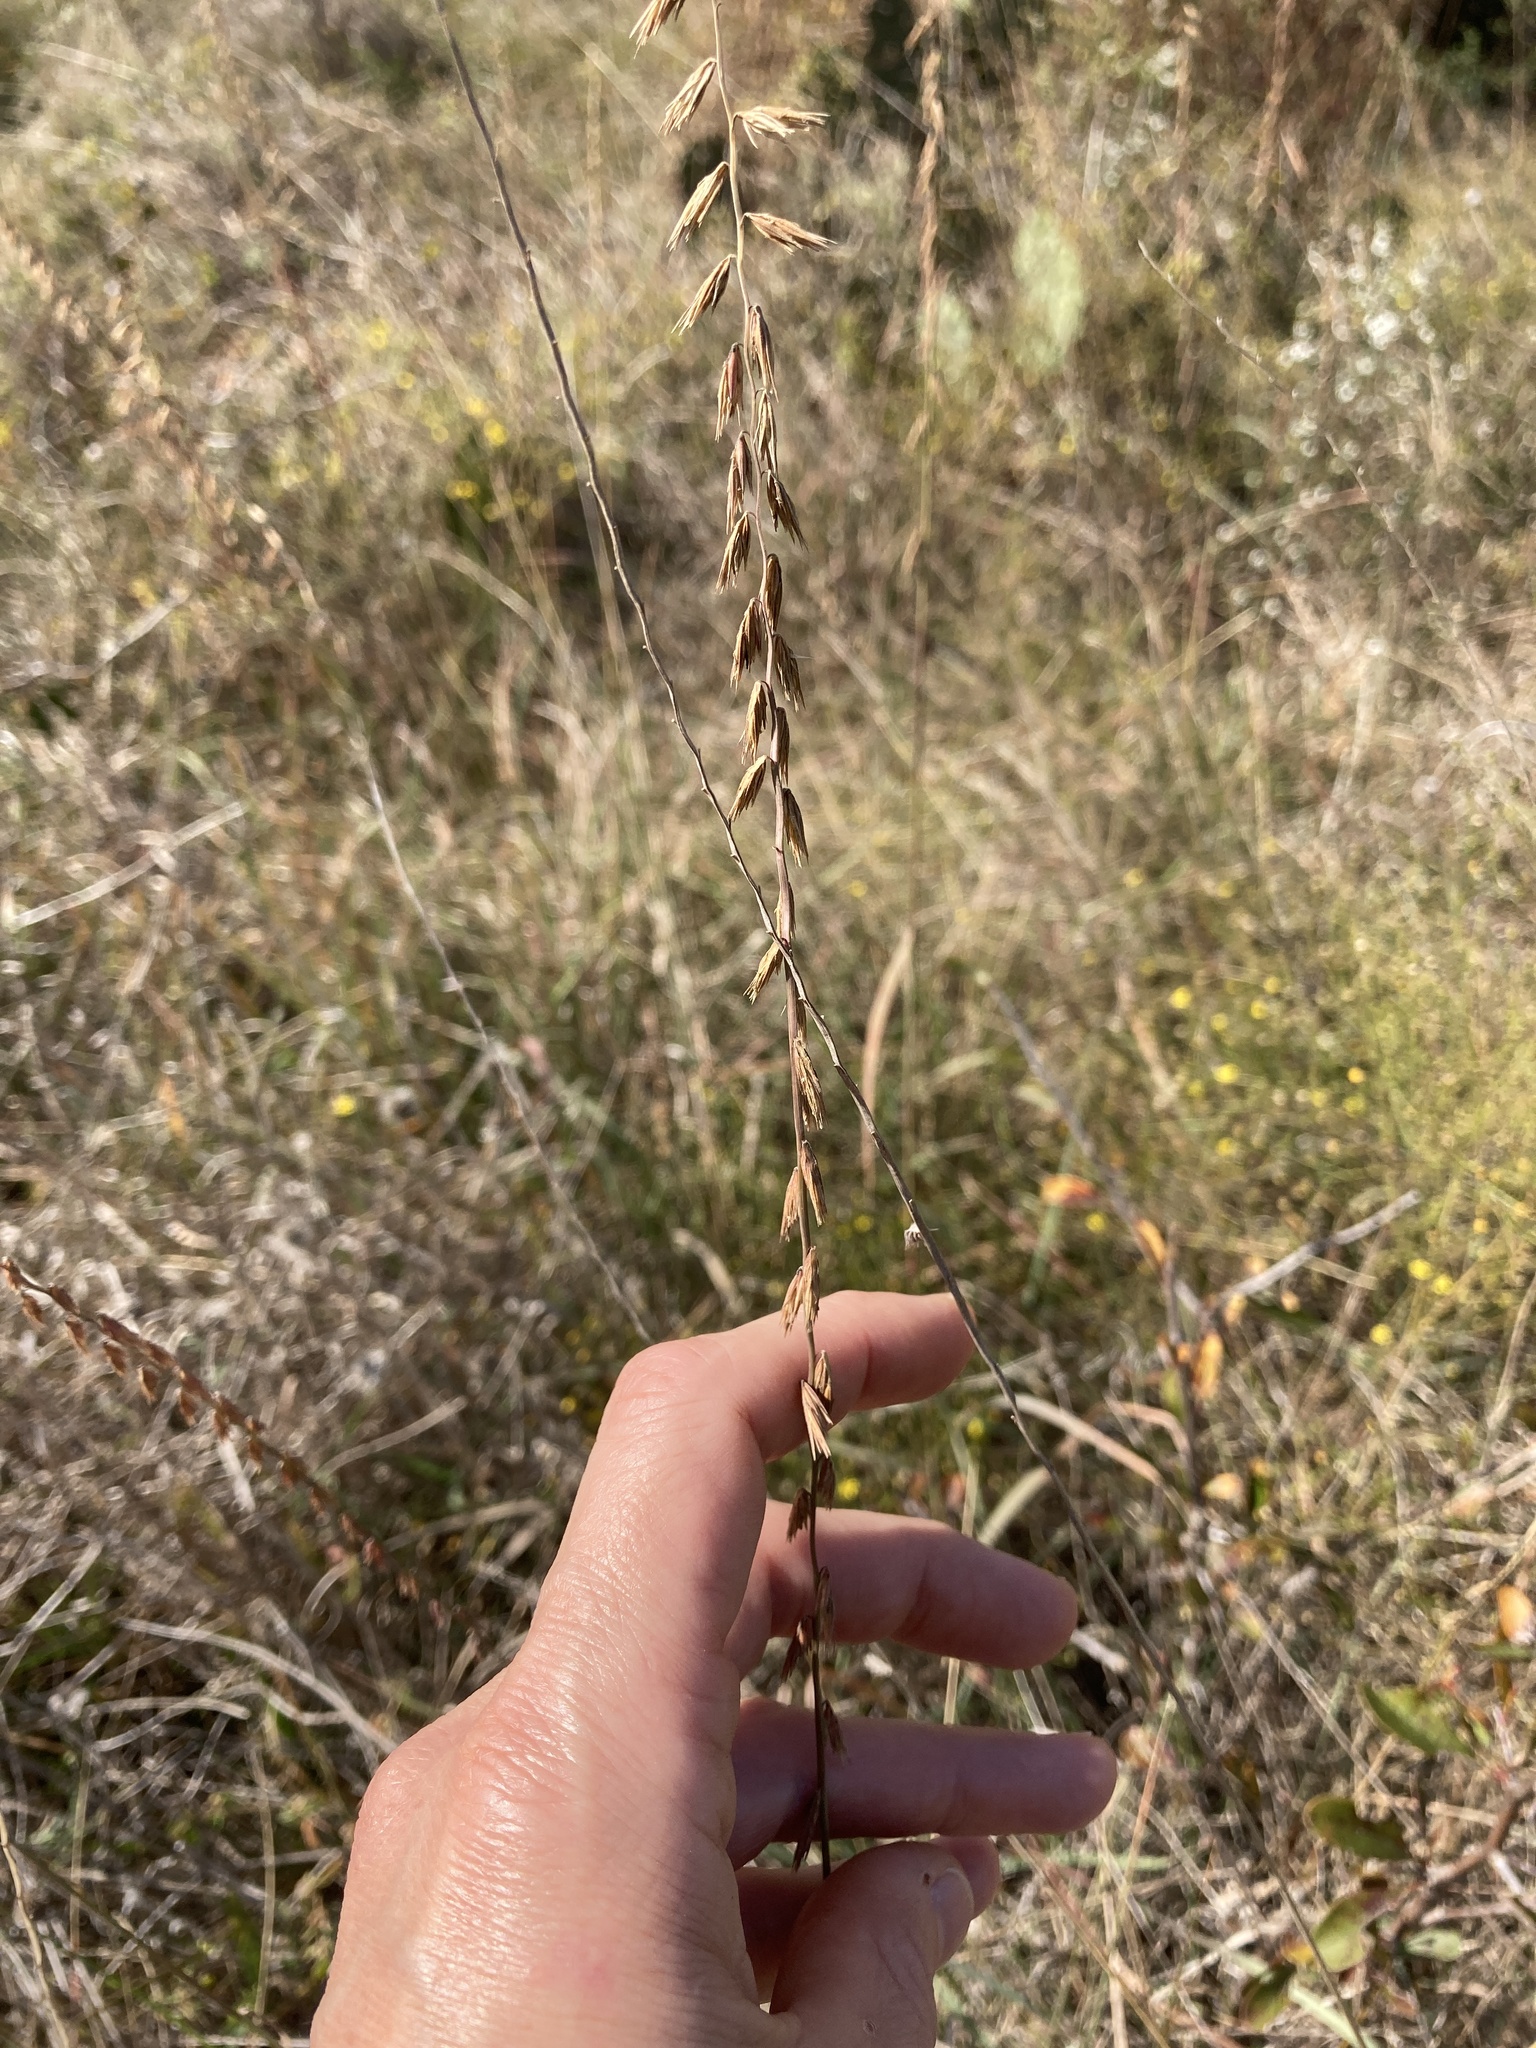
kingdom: Plantae
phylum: Tracheophyta
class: Liliopsida
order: Poales
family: Poaceae
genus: Bouteloua
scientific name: Bouteloua curtipendula
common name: Side-oats grama
